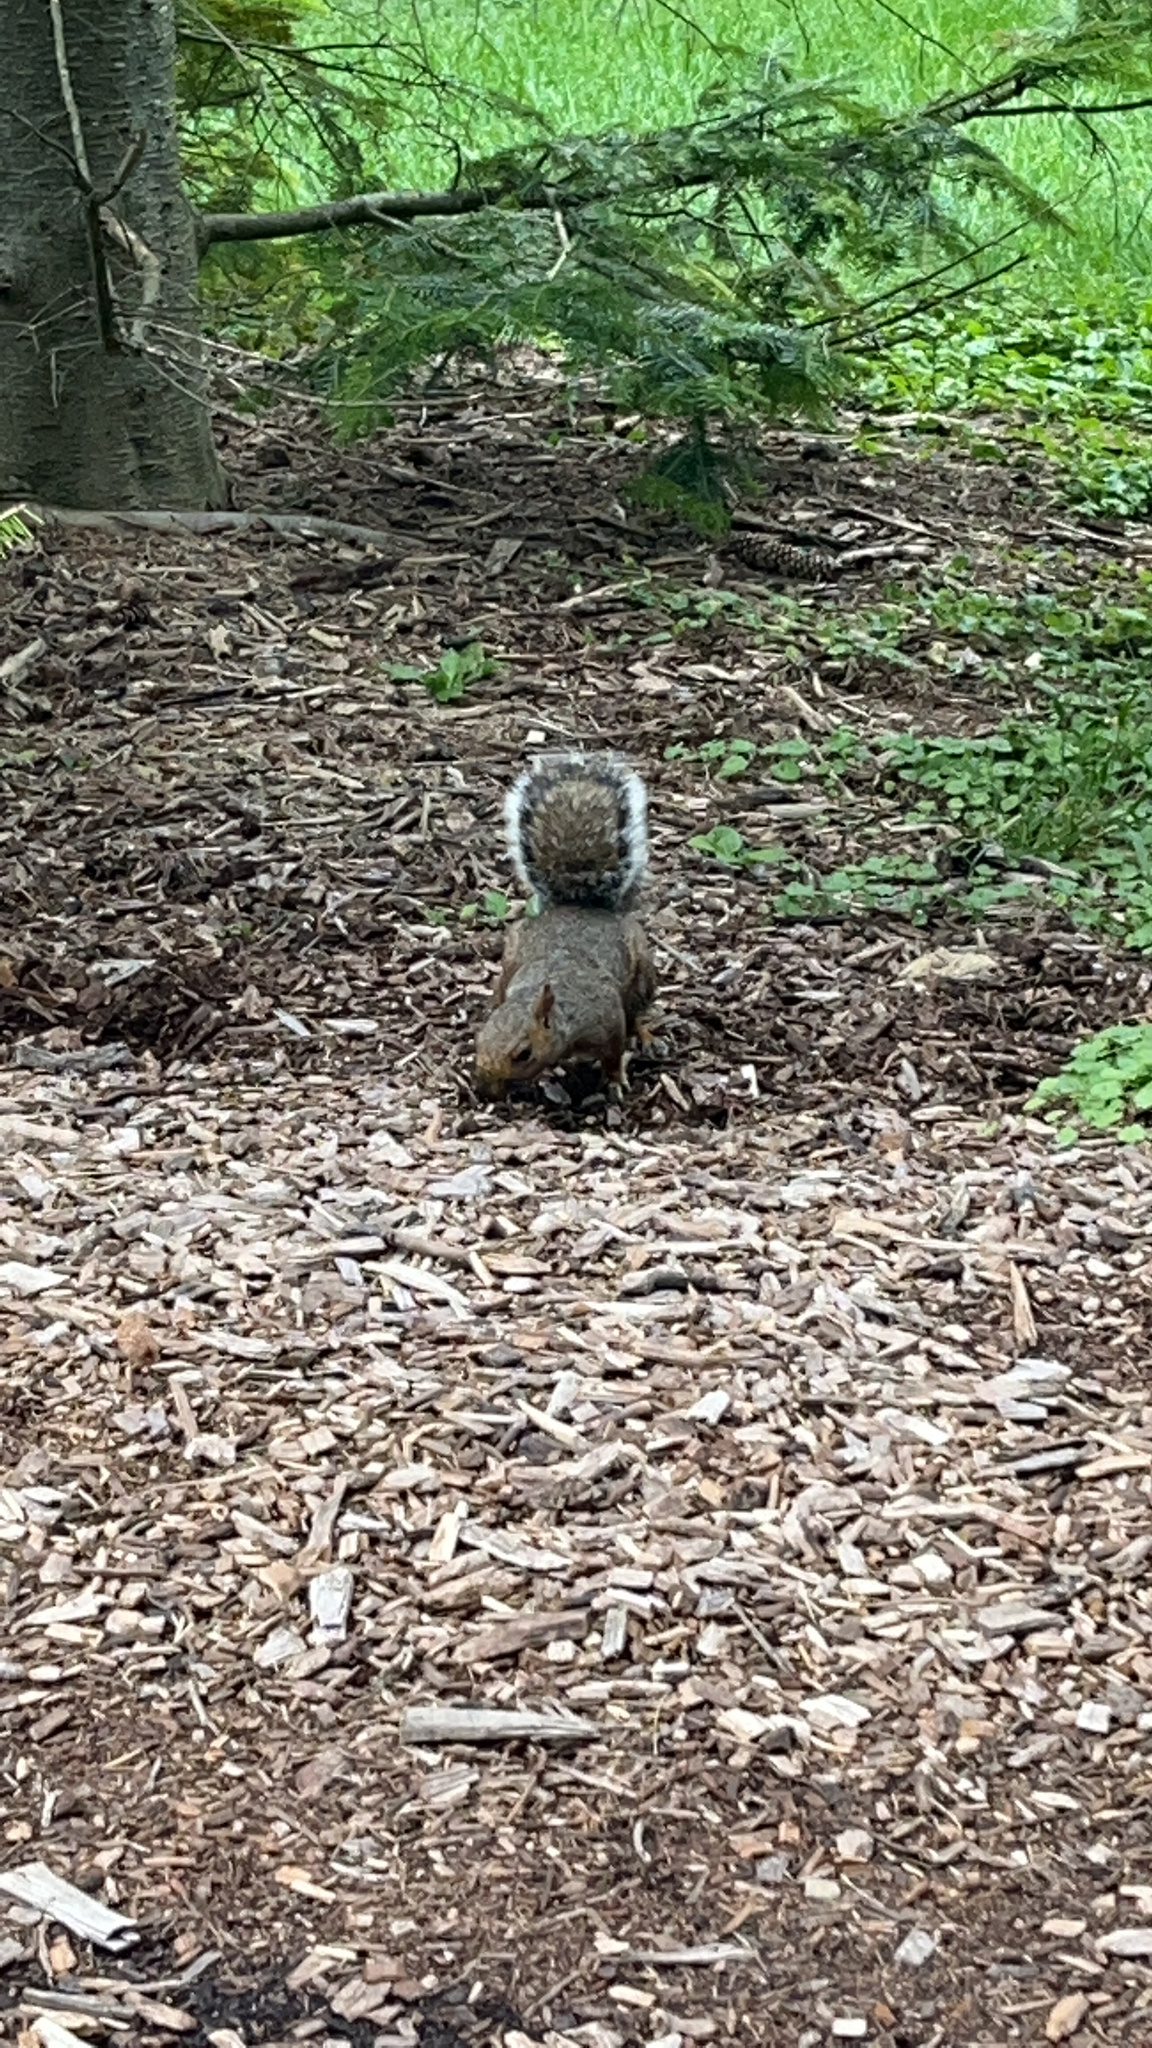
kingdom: Animalia
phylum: Chordata
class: Mammalia
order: Rodentia
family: Sciuridae
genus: Sciurus
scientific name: Sciurus carolinensis
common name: Eastern gray squirrel
